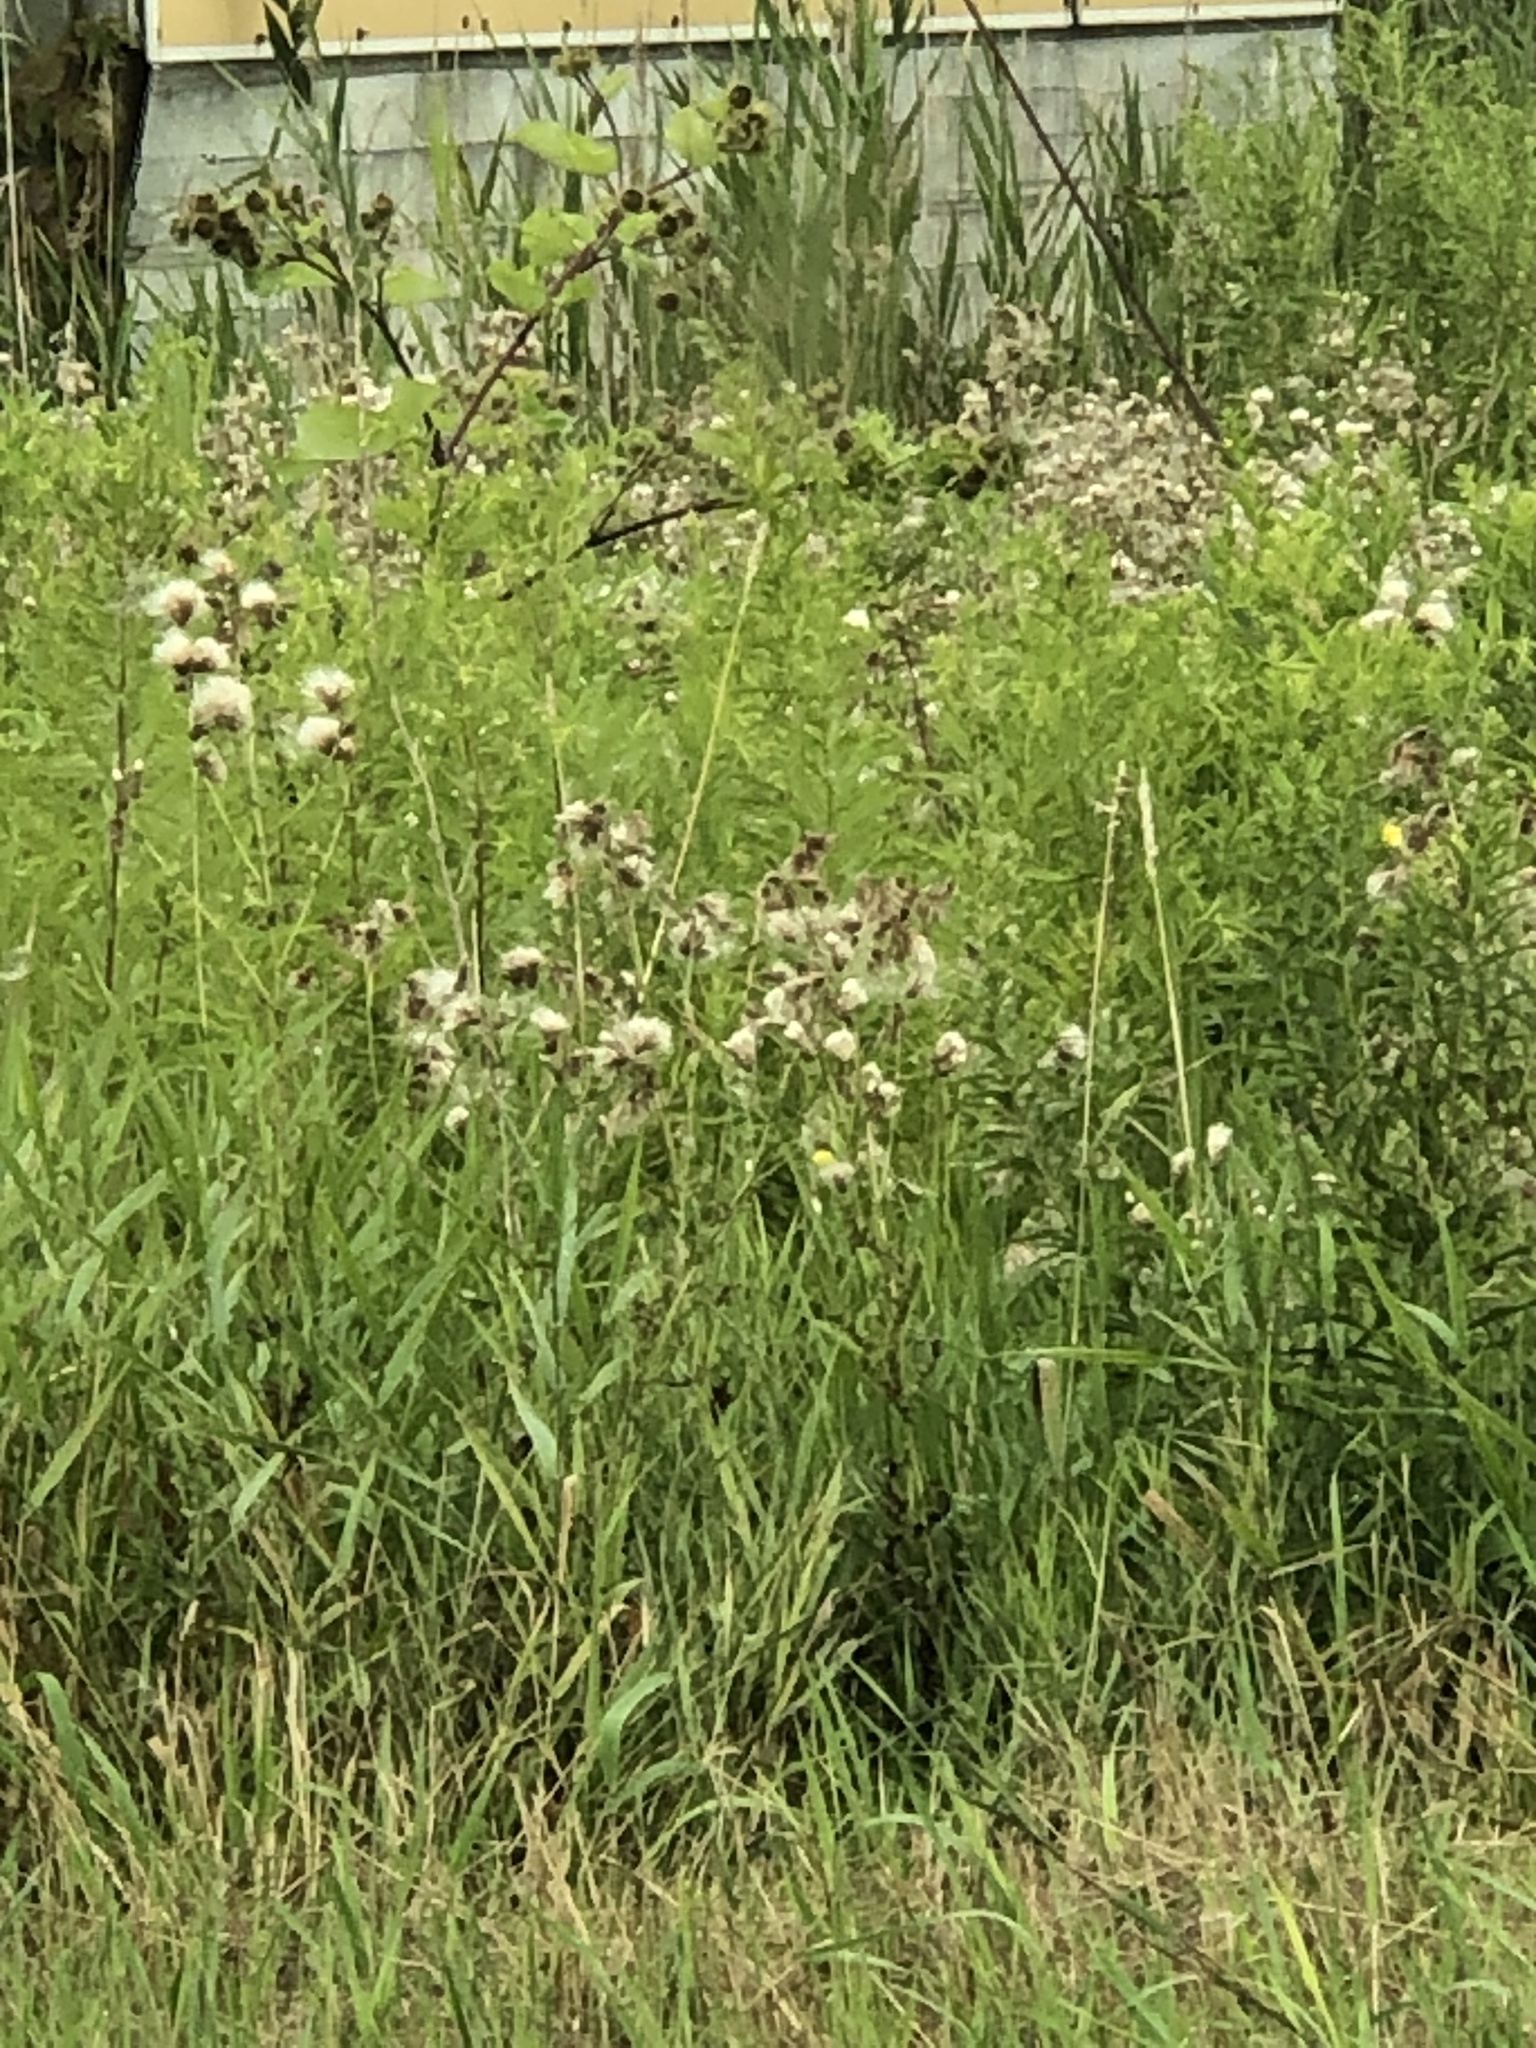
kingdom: Plantae
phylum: Tracheophyta
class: Magnoliopsida
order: Asterales
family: Asteraceae
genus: Cirsium
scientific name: Cirsium arvense
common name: Creeping thistle
